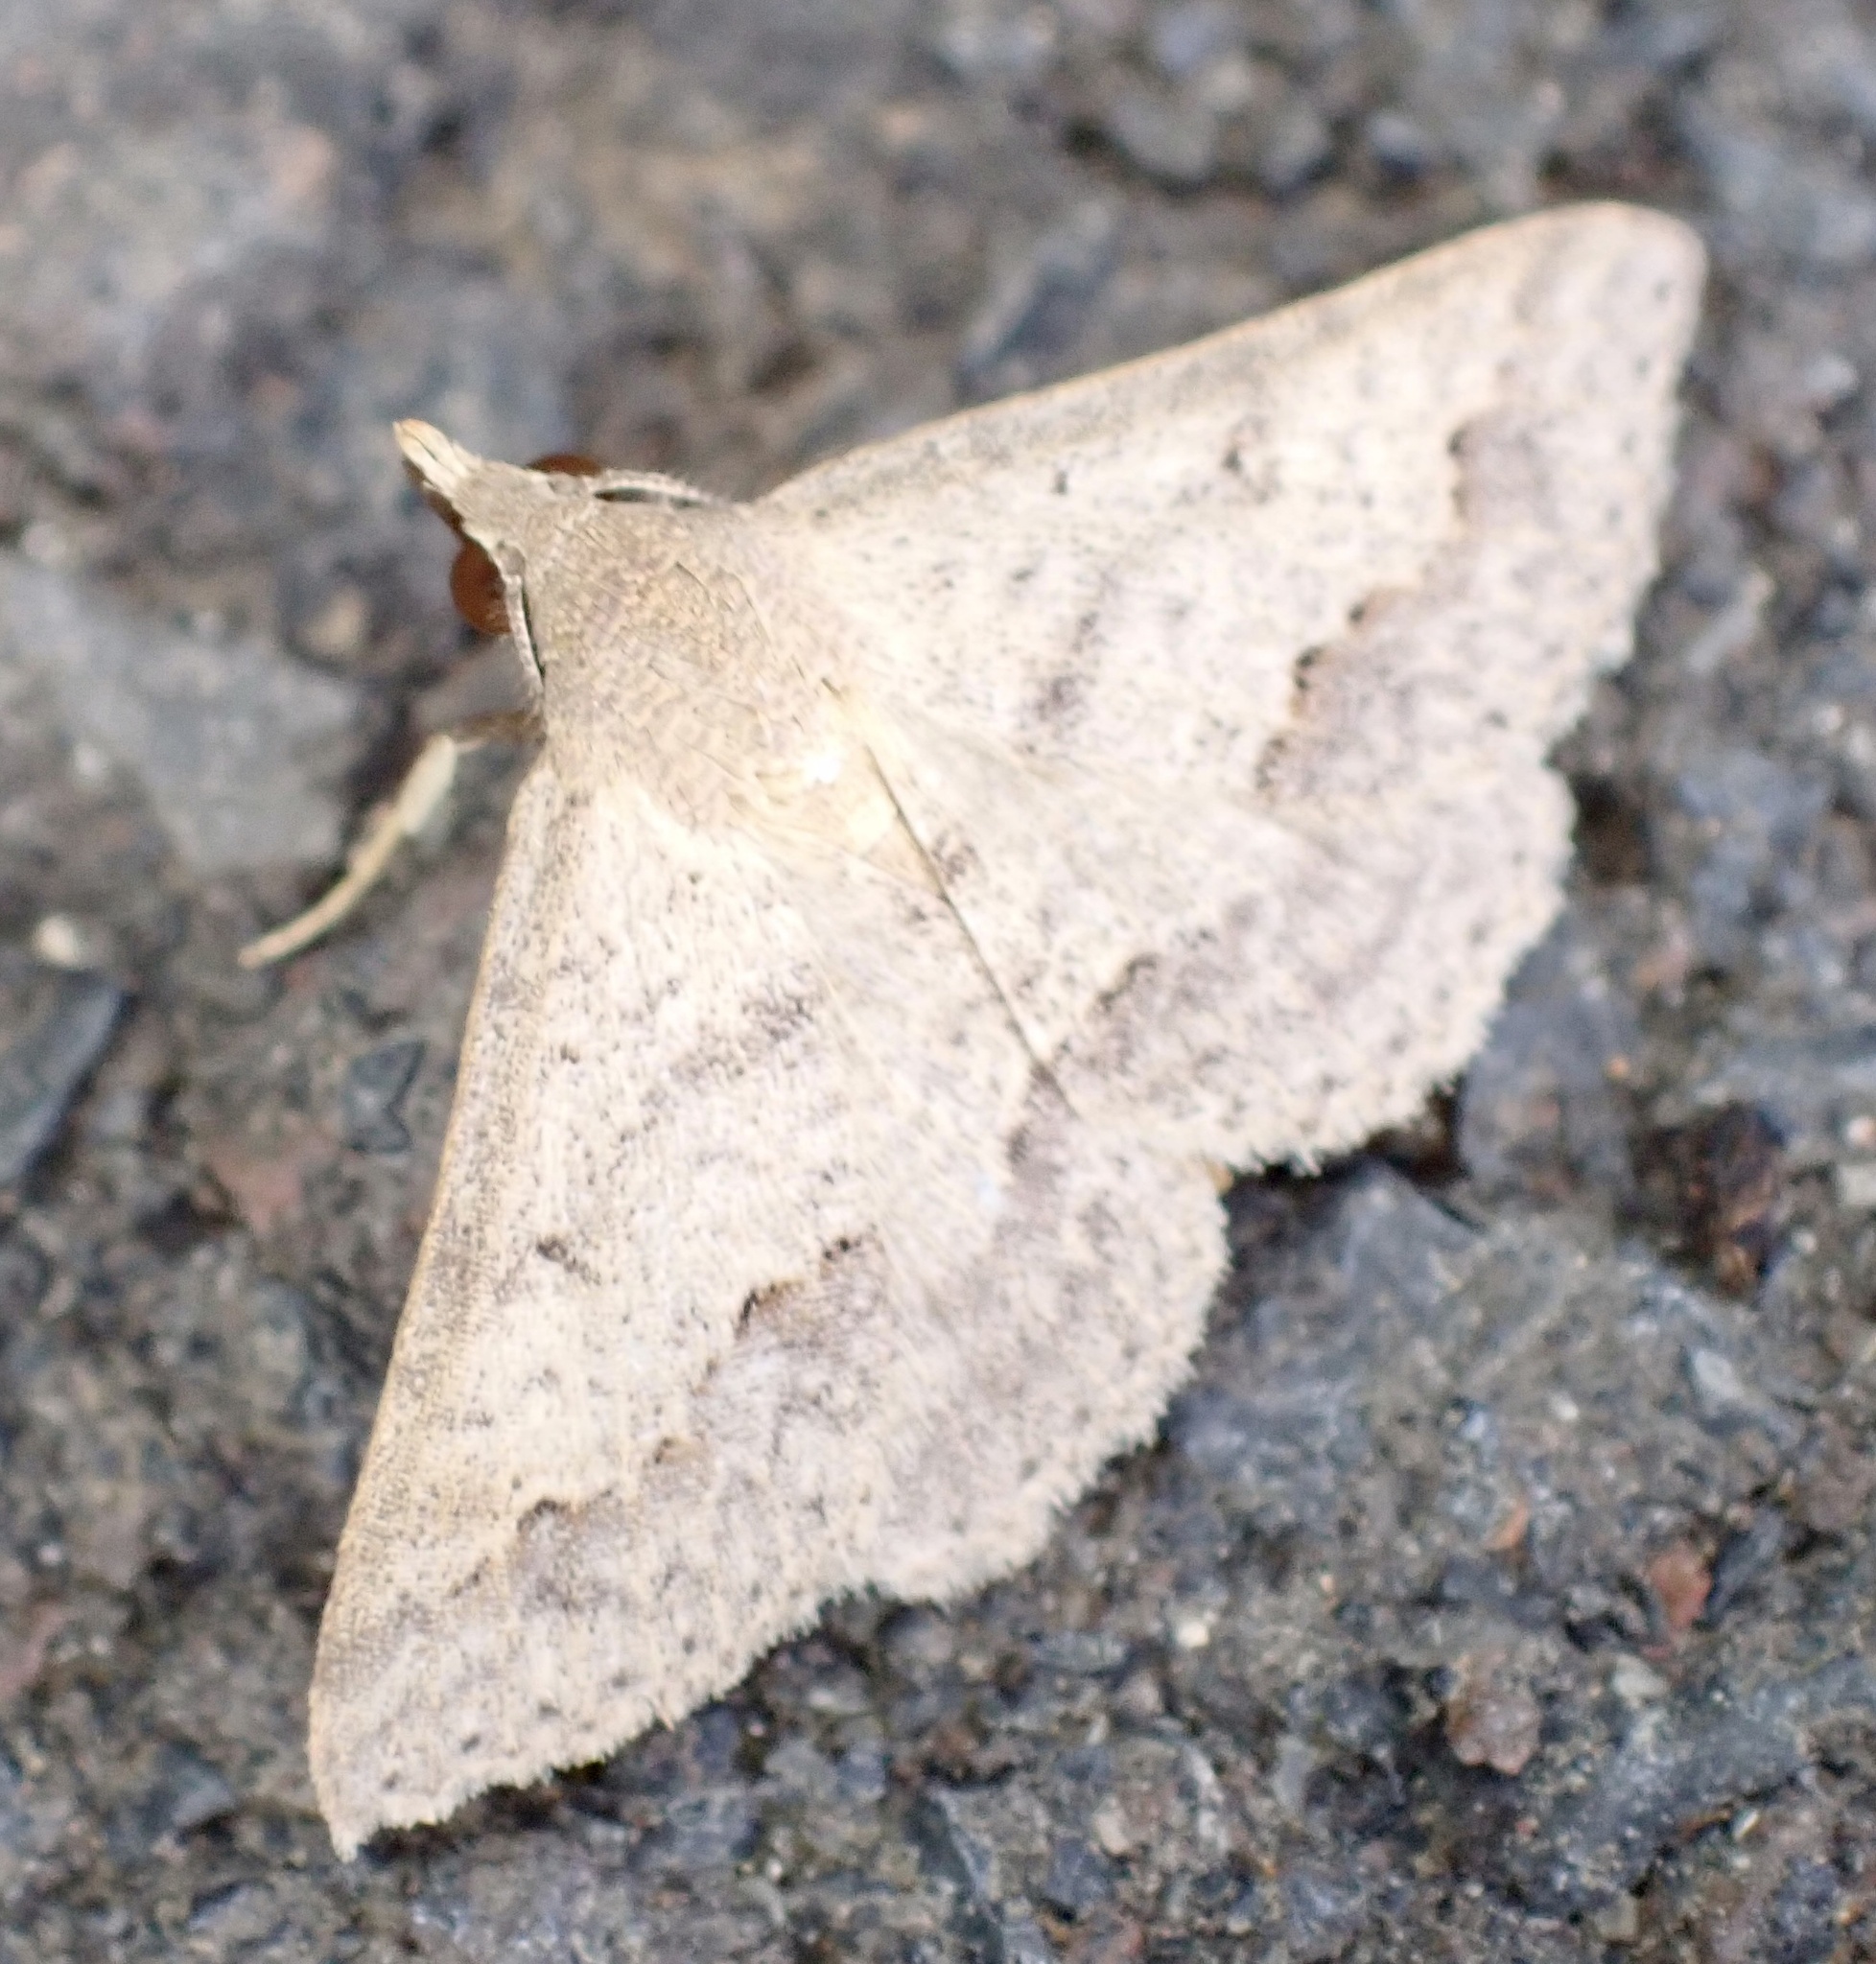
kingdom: Animalia
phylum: Arthropoda
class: Insecta
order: Lepidoptera
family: Erebidae
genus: Gesonia
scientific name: Gesonia obeditalis
